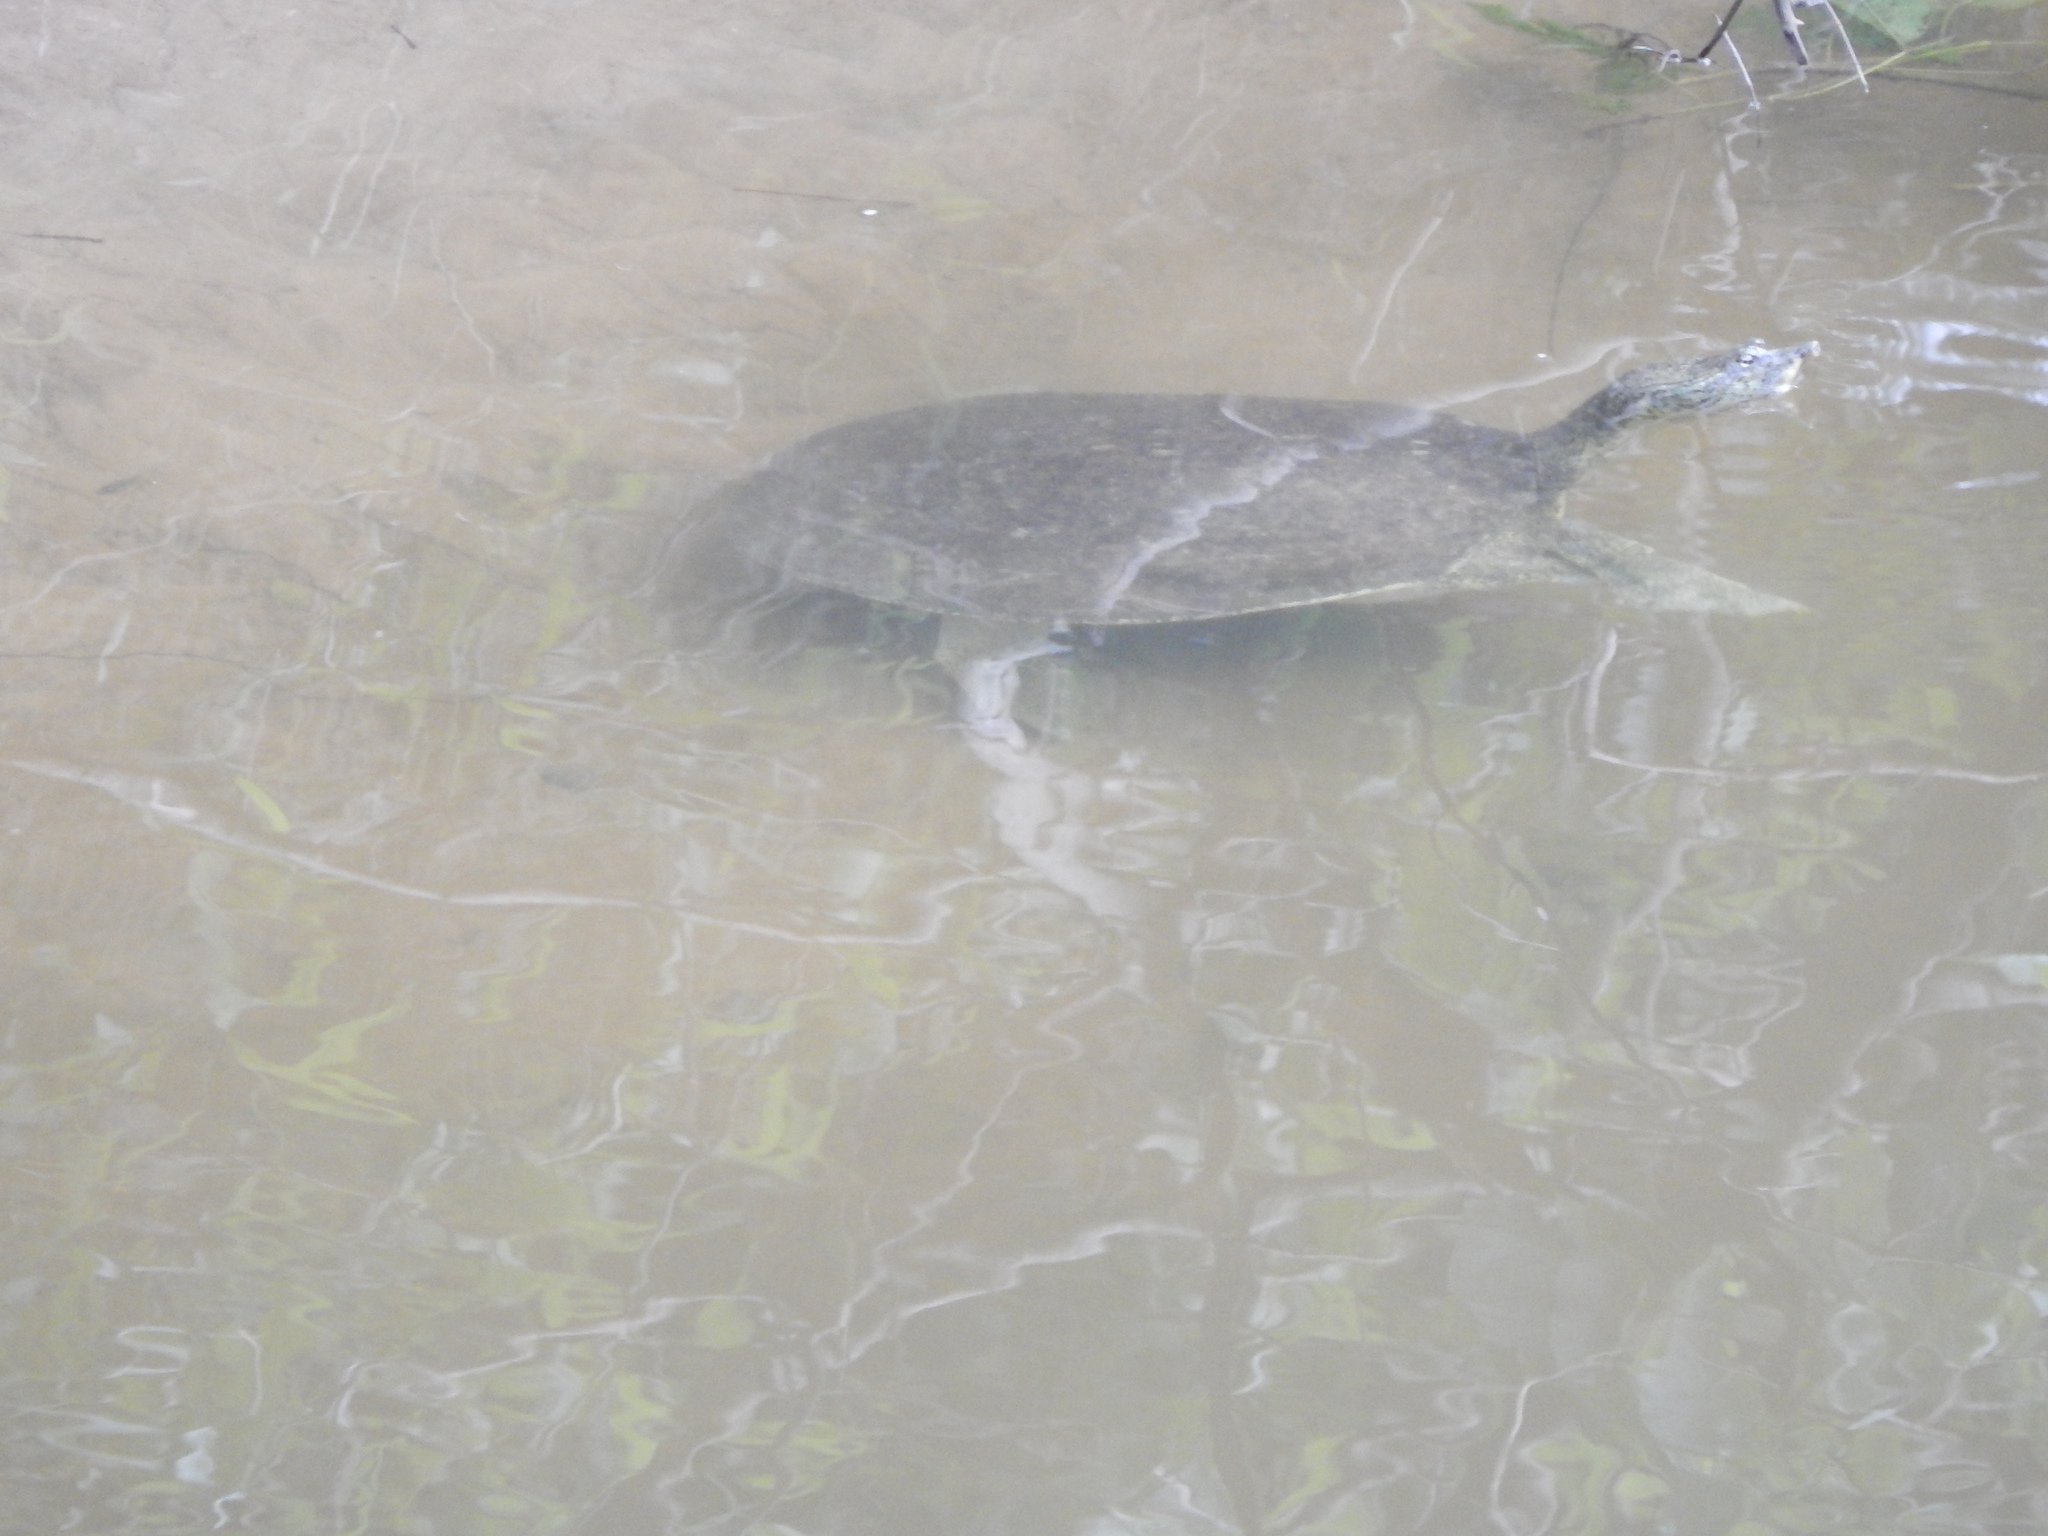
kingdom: Animalia
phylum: Chordata
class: Testudines
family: Trionychidae
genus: Apalone
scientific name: Apalone spinifera
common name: Spiny softshell turtle
